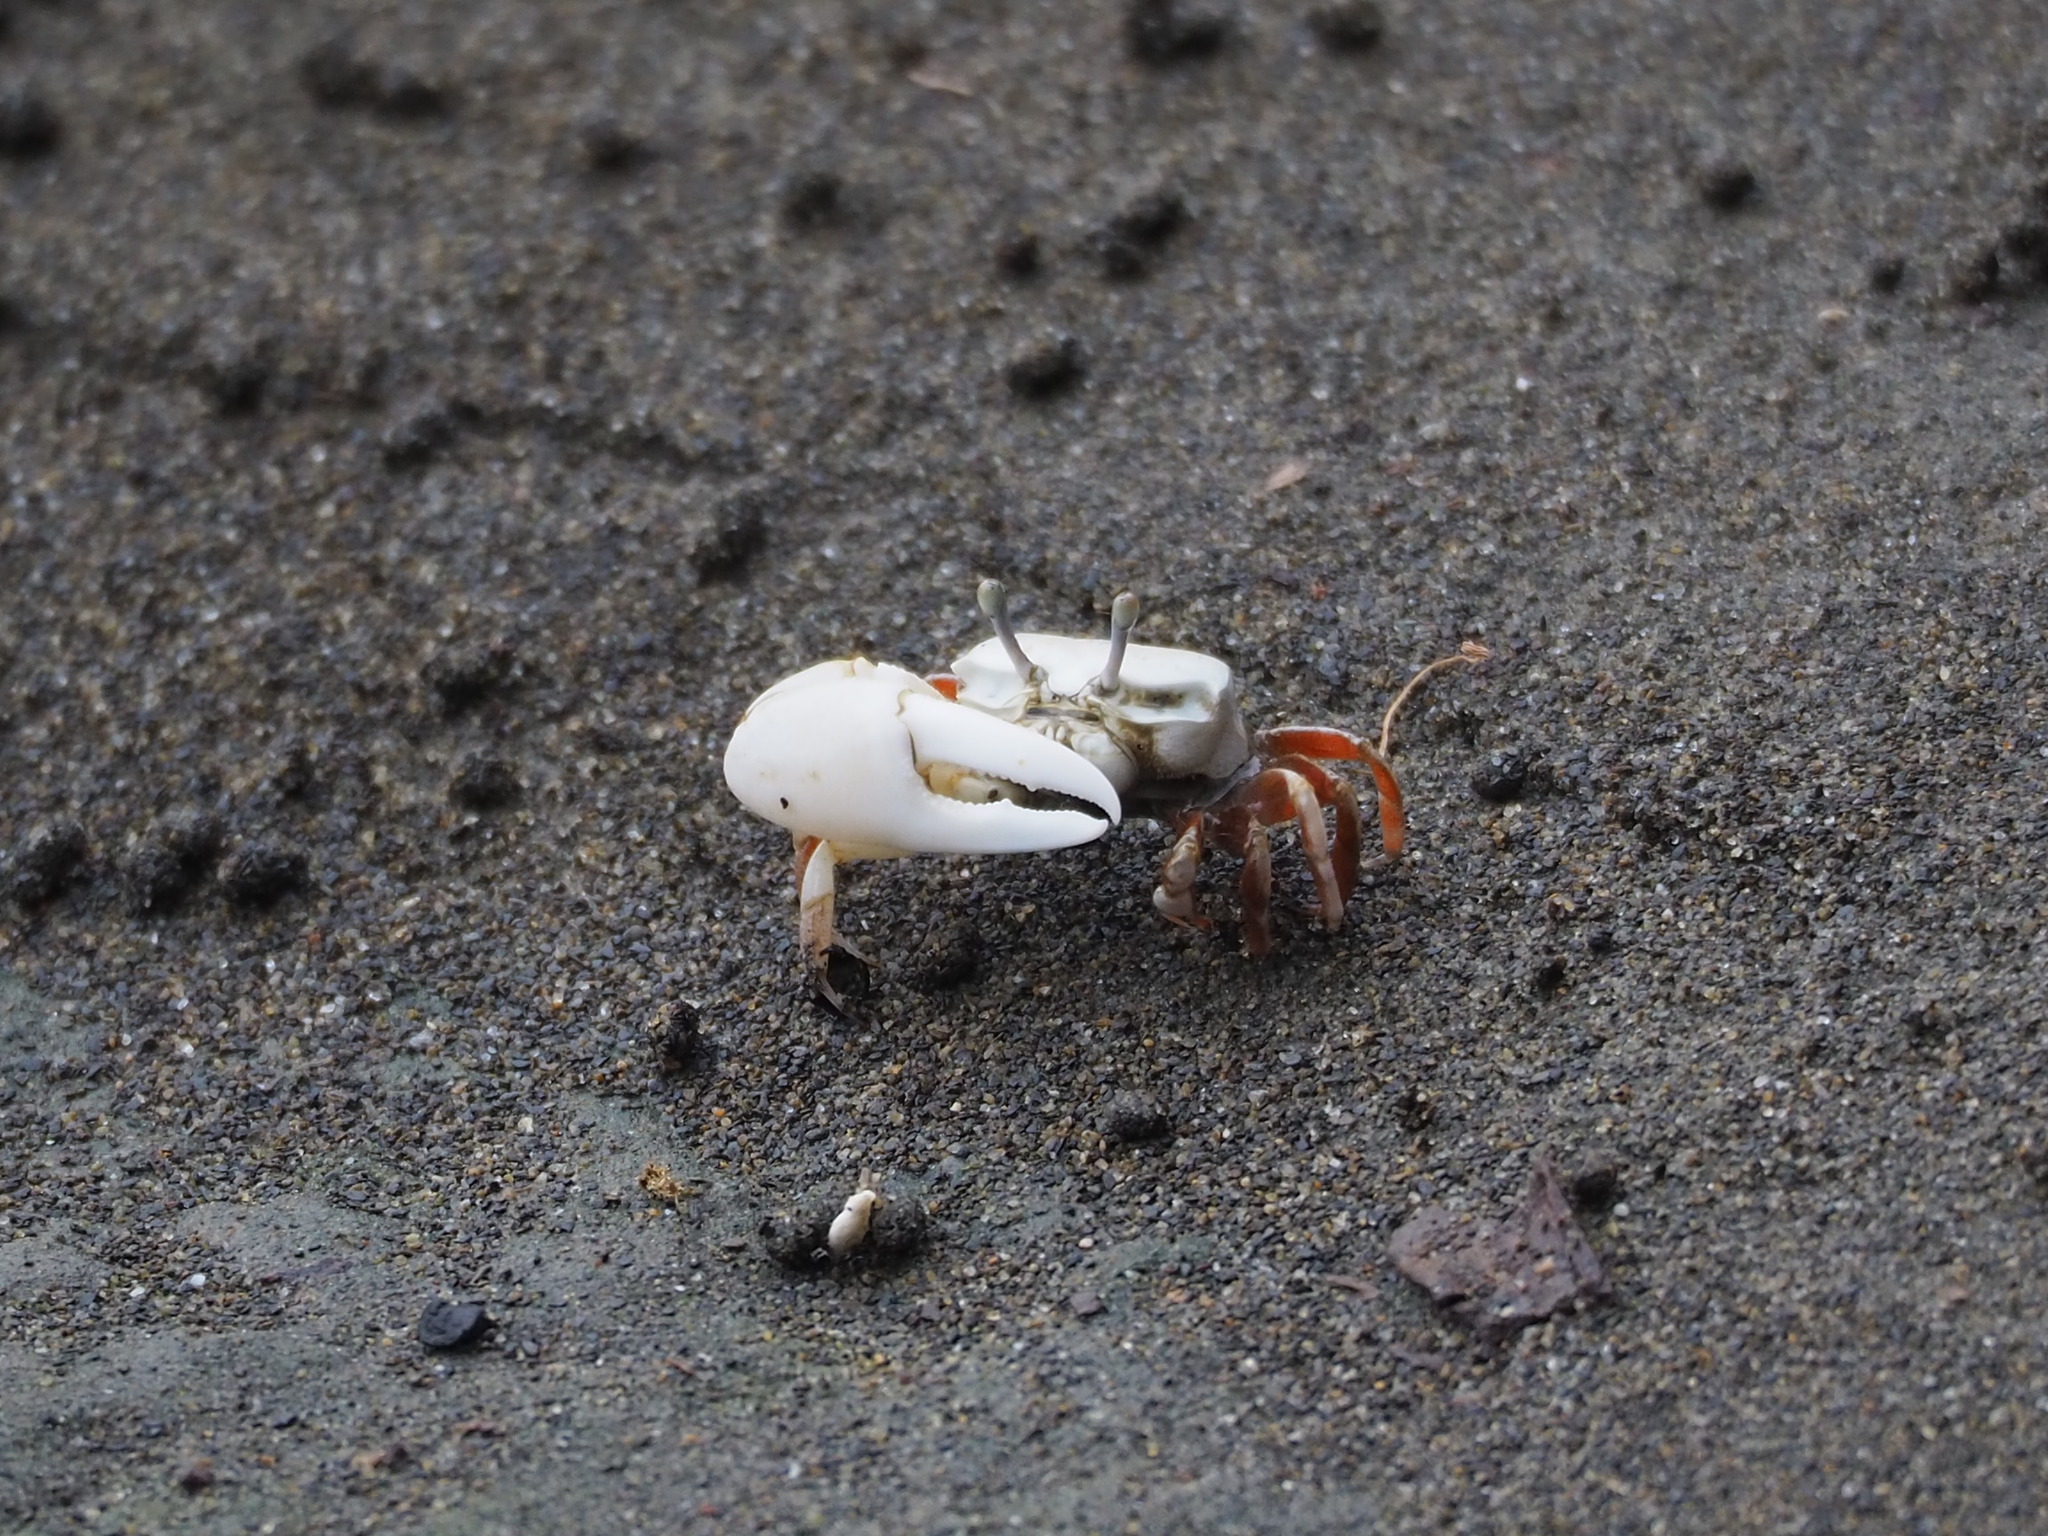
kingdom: Animalia
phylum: Arthropoda
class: Malacostraca
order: Decapoda
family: Ocypodidae
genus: Austruca
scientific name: Austruca lactea
